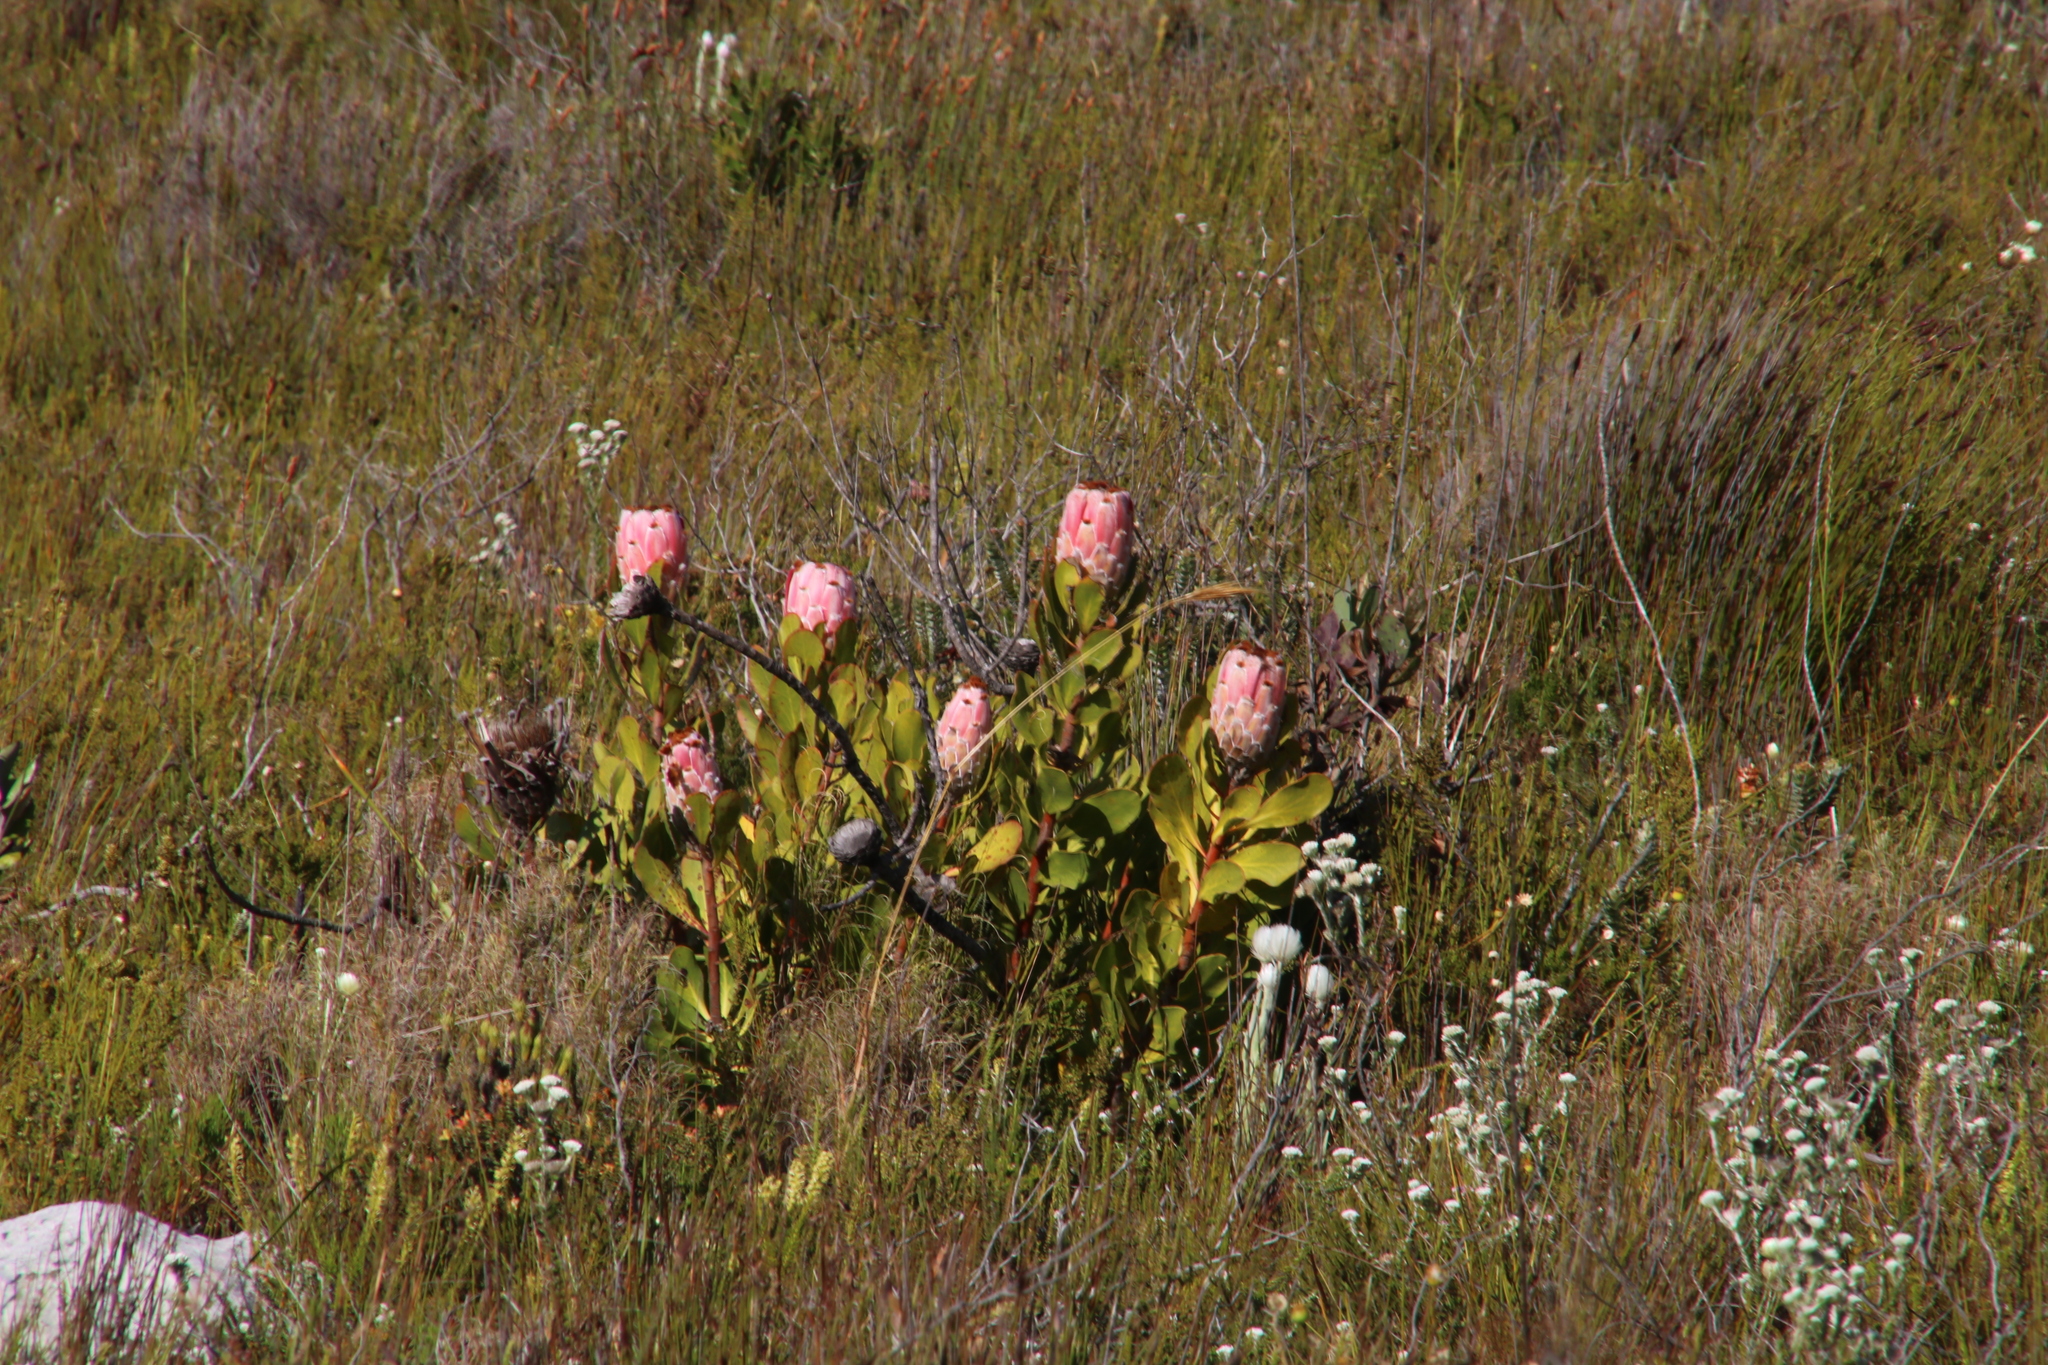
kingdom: Plantae
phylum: Tracheophyta
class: Magnoliopsida
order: Proteales
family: Proteaceae
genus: Protea
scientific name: Protea speciosa
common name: Brown-beard sugarbush
